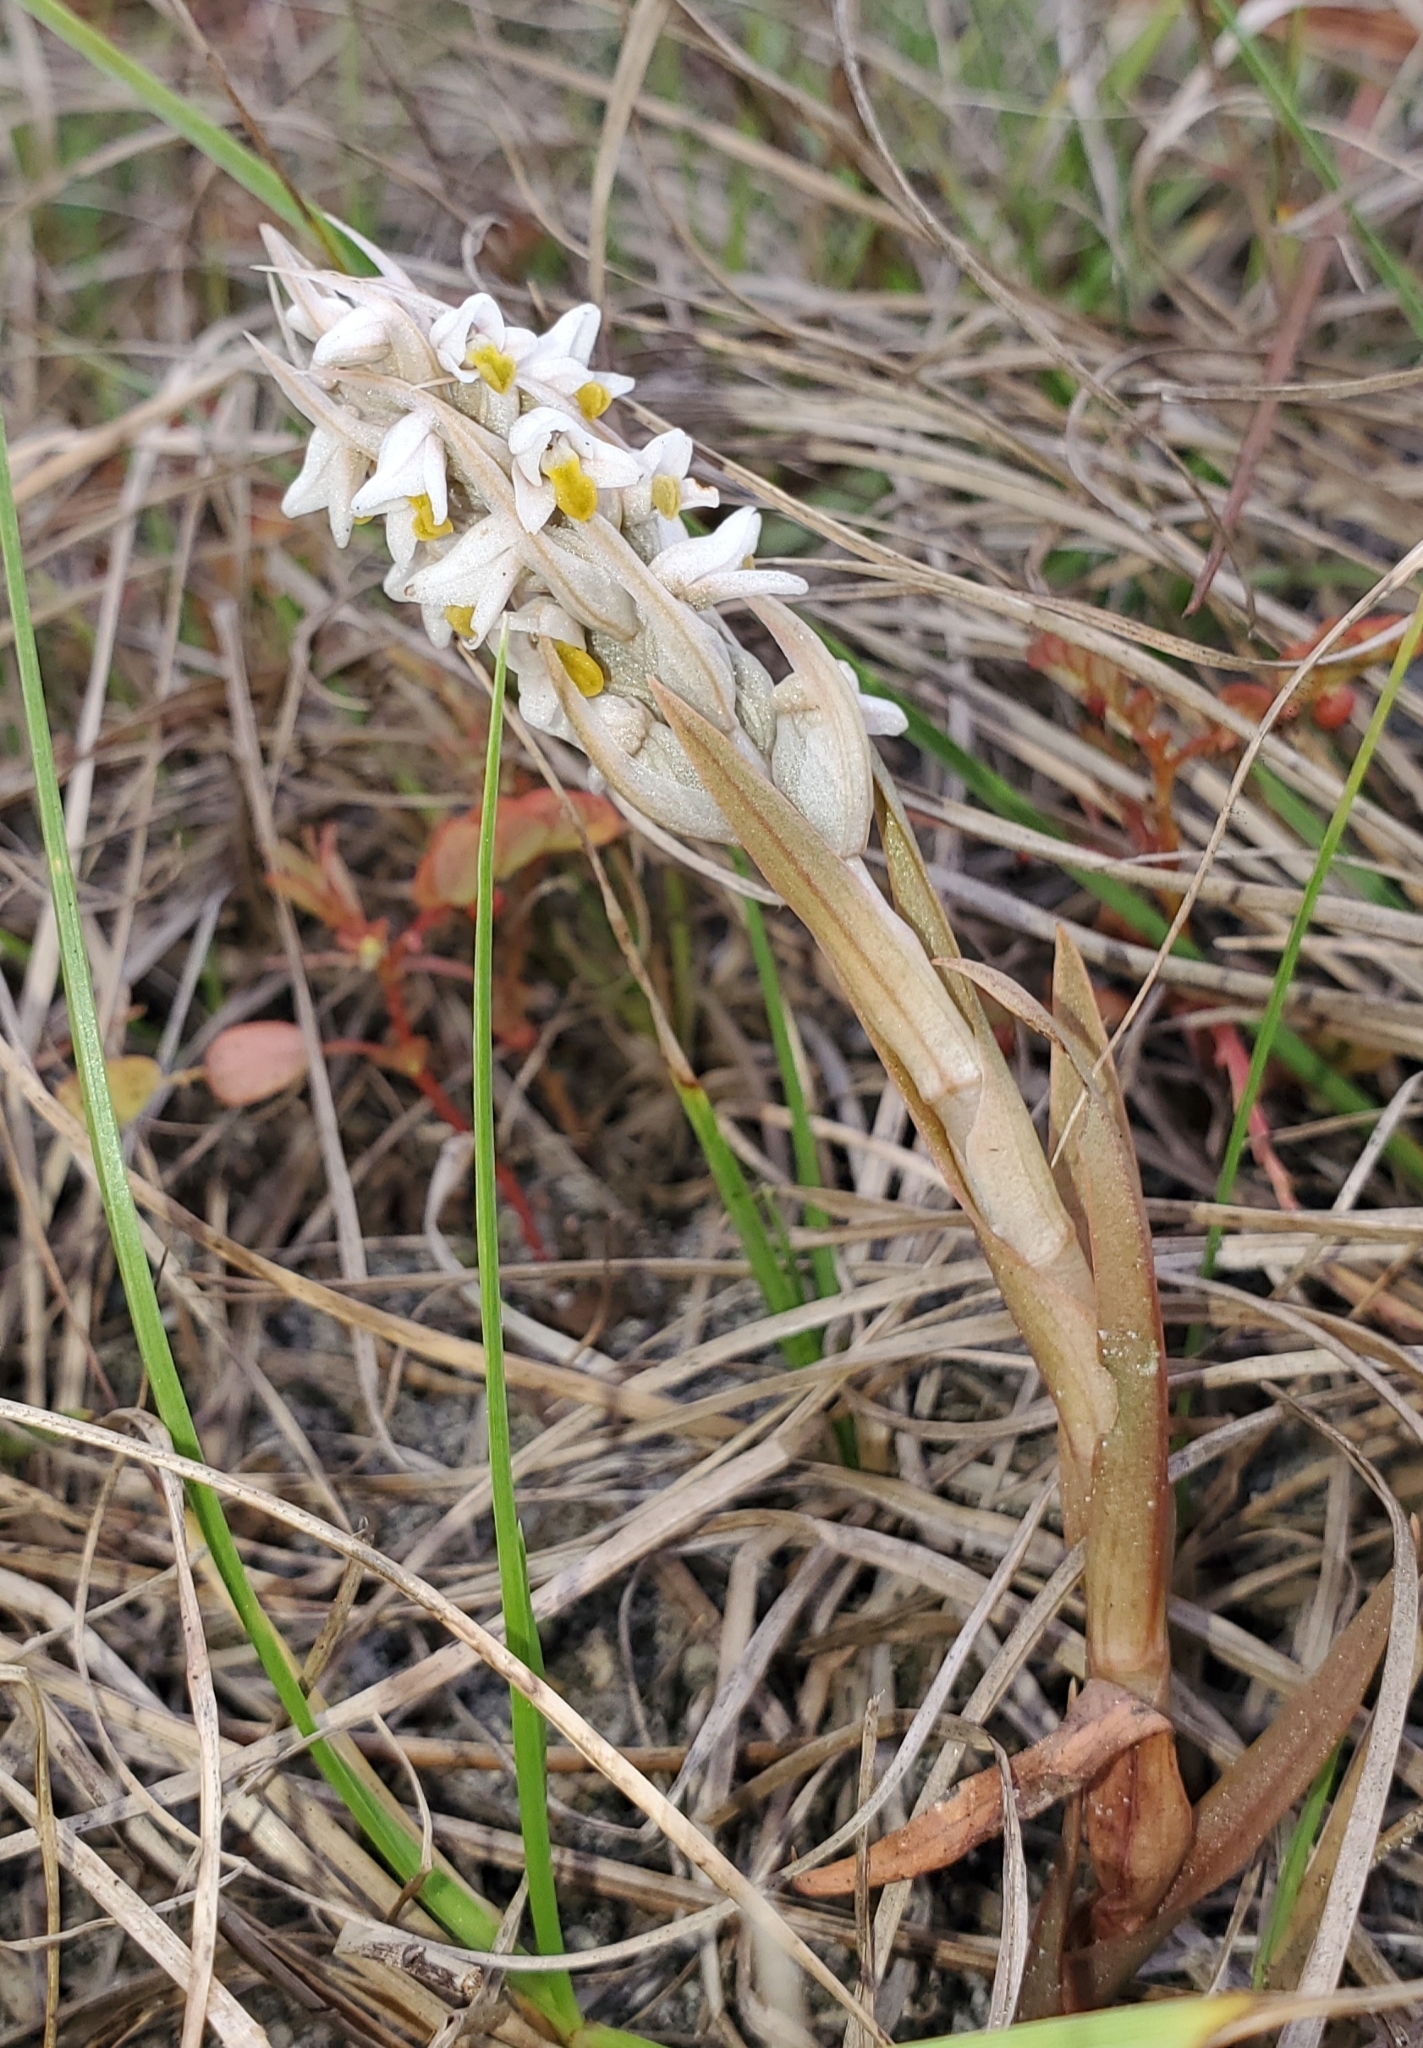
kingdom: Plantae
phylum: Tracheophyta
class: Liliopsida
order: Asparagales
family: Orchidaceae
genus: Zeuxine
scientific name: Zeuxine strateumatica
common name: Soldier's orchid
